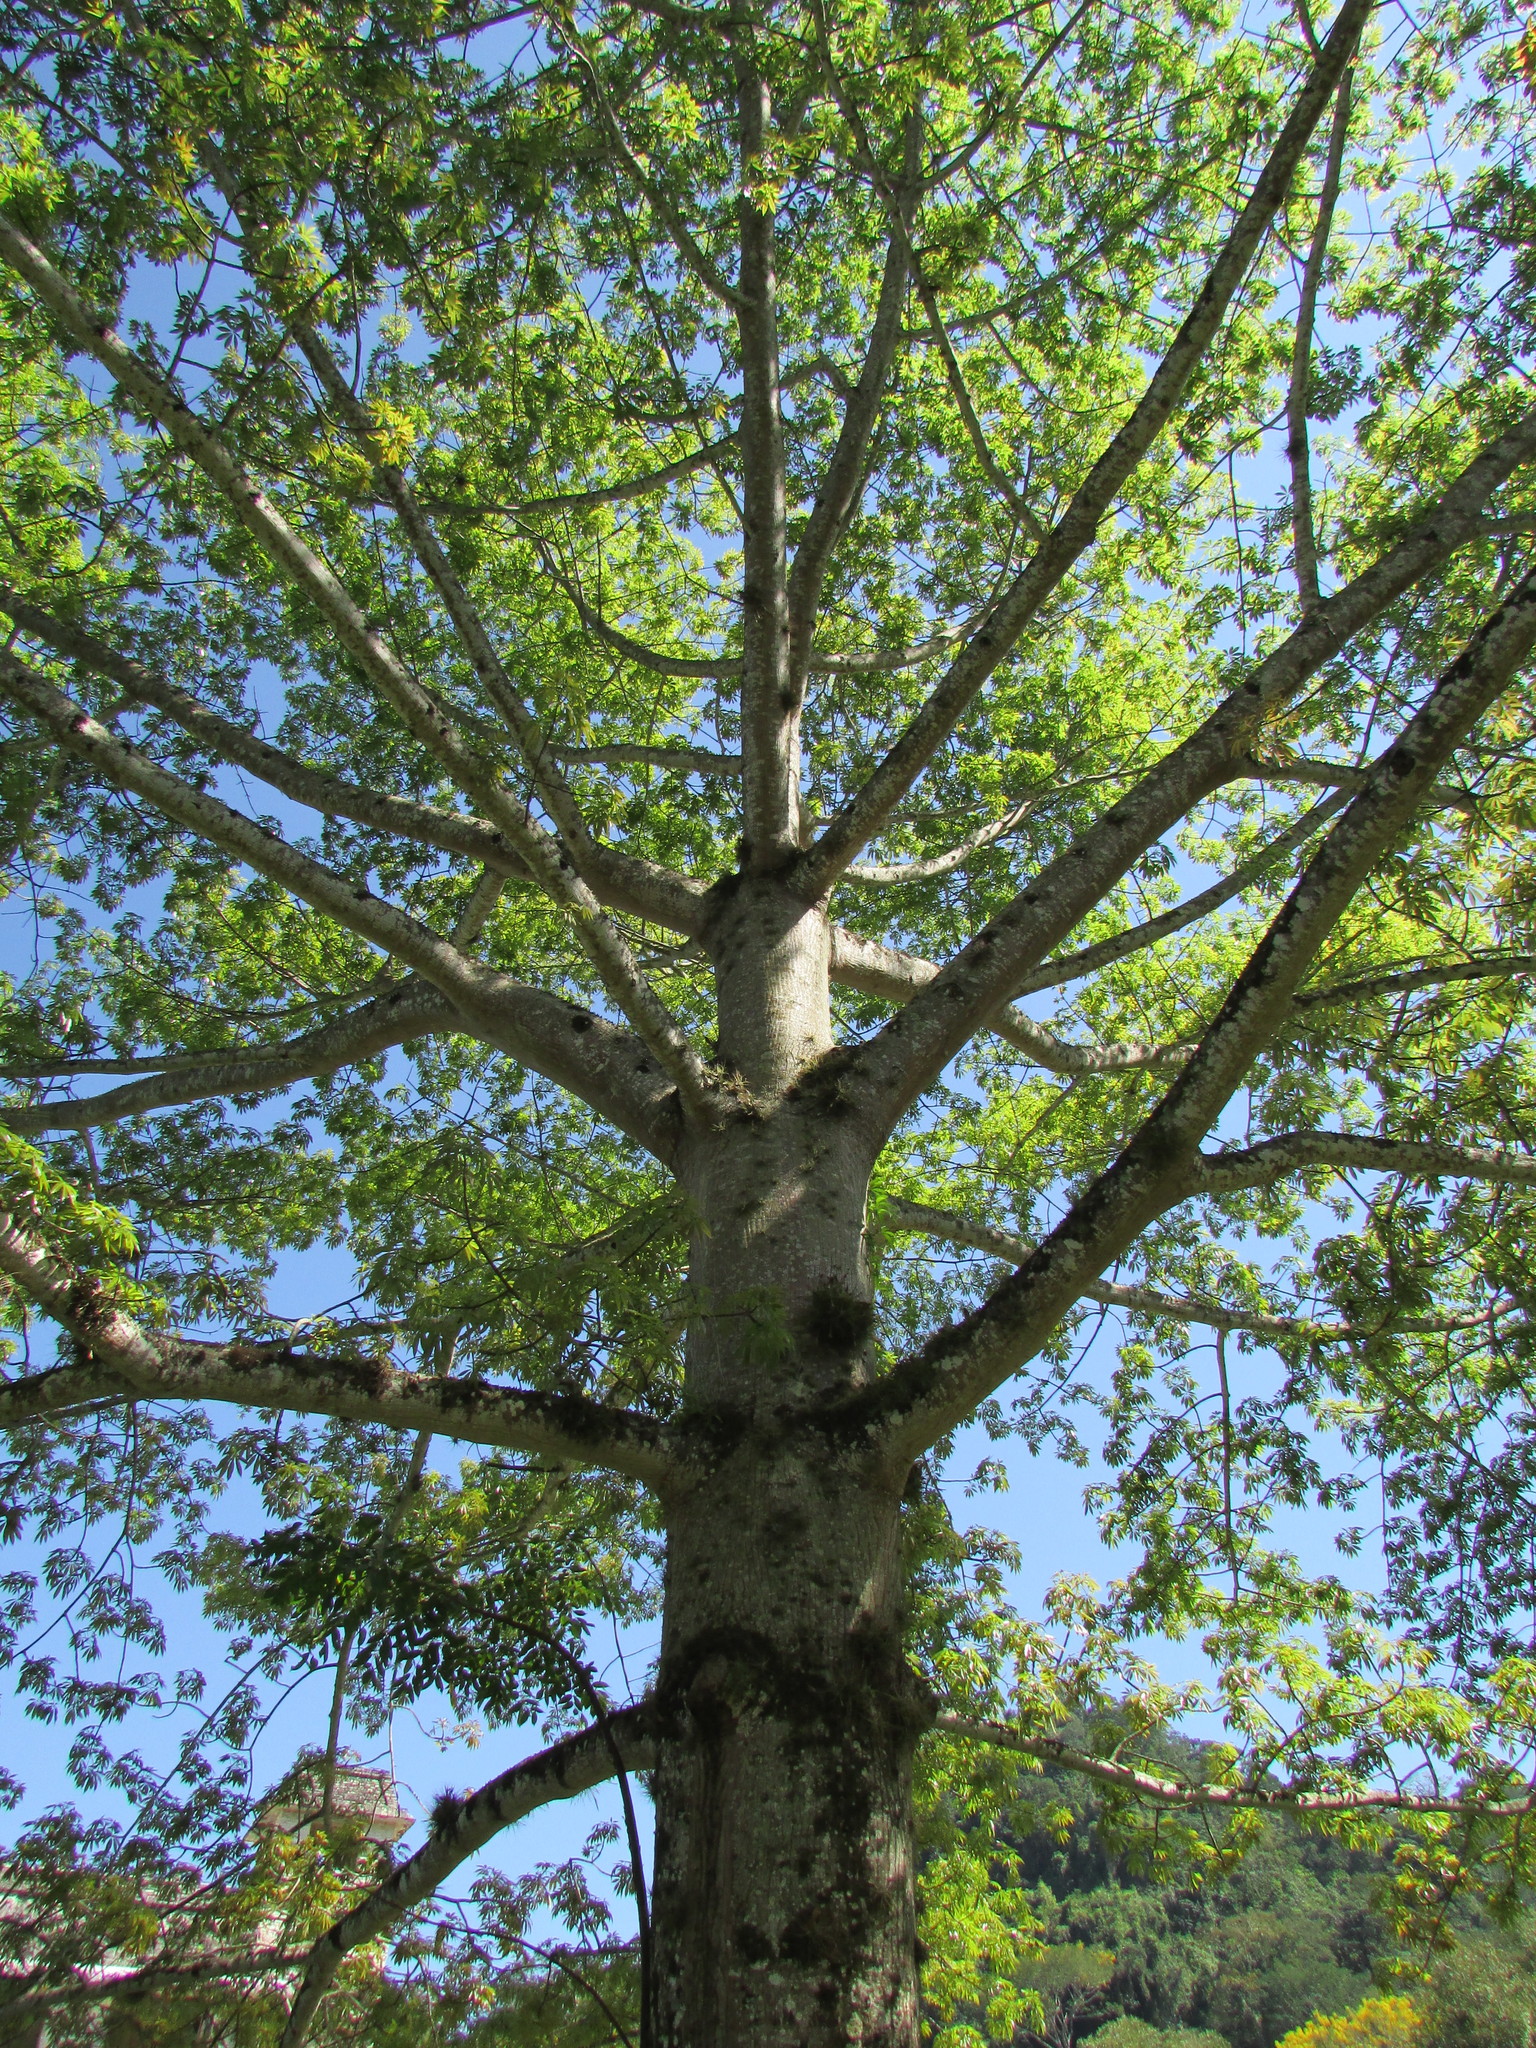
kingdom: Plantae
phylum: Tracheophyta
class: Magnoliopsida
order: Malvales
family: Malvaceae
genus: Ceiba
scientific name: Ceiba pentandra
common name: Kapok
